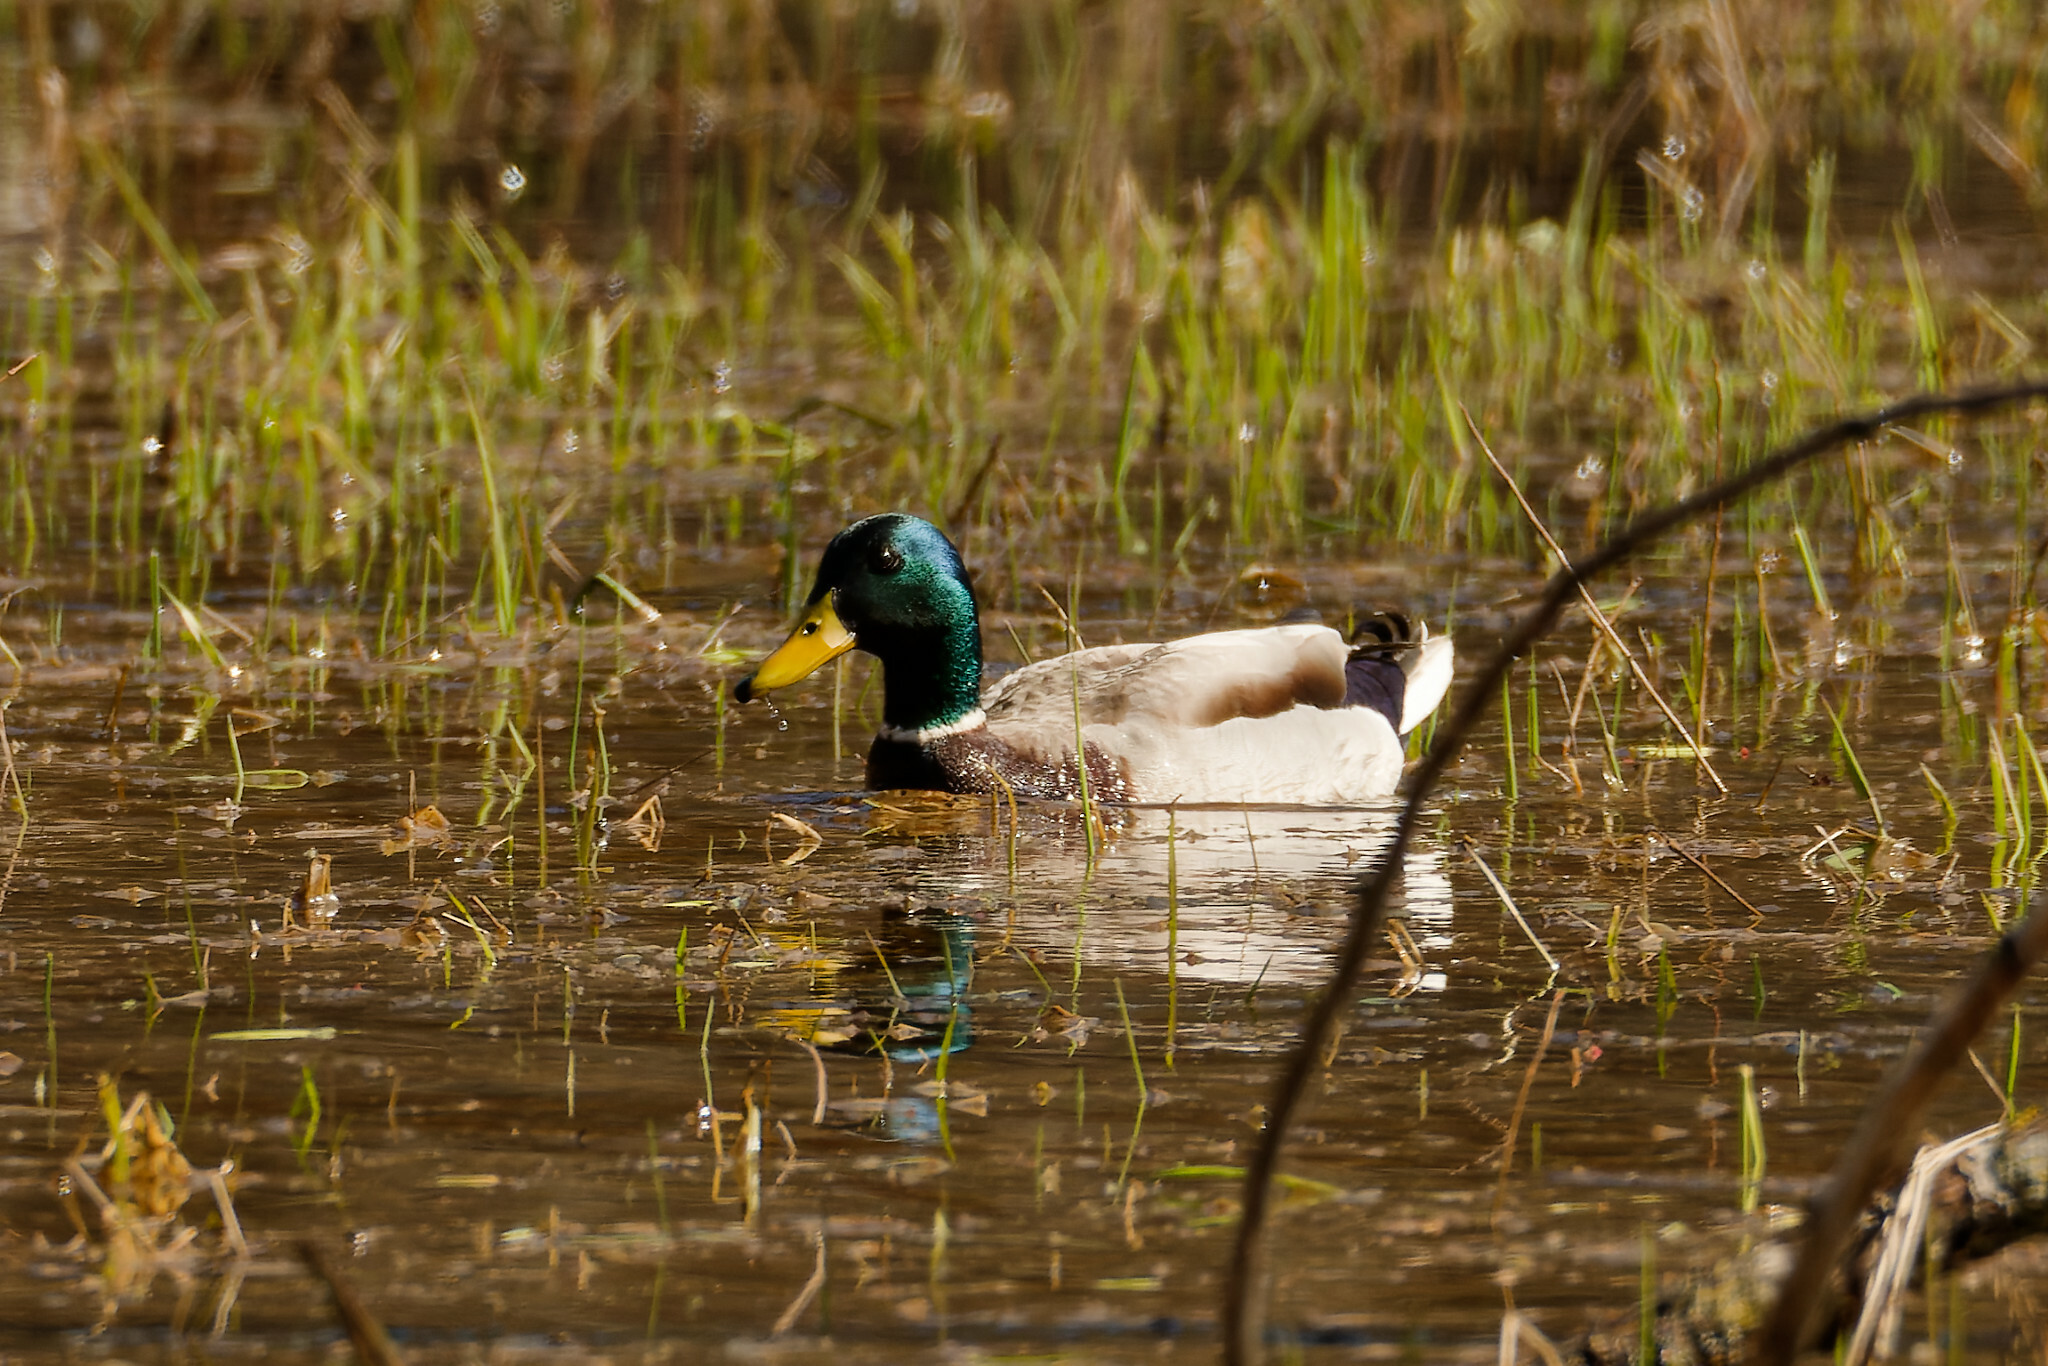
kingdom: Animalia
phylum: Chordata
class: Aves
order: Anseriformes
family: Anatidae
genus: Anas
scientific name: Anas platyrhynchos
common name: Mallard
